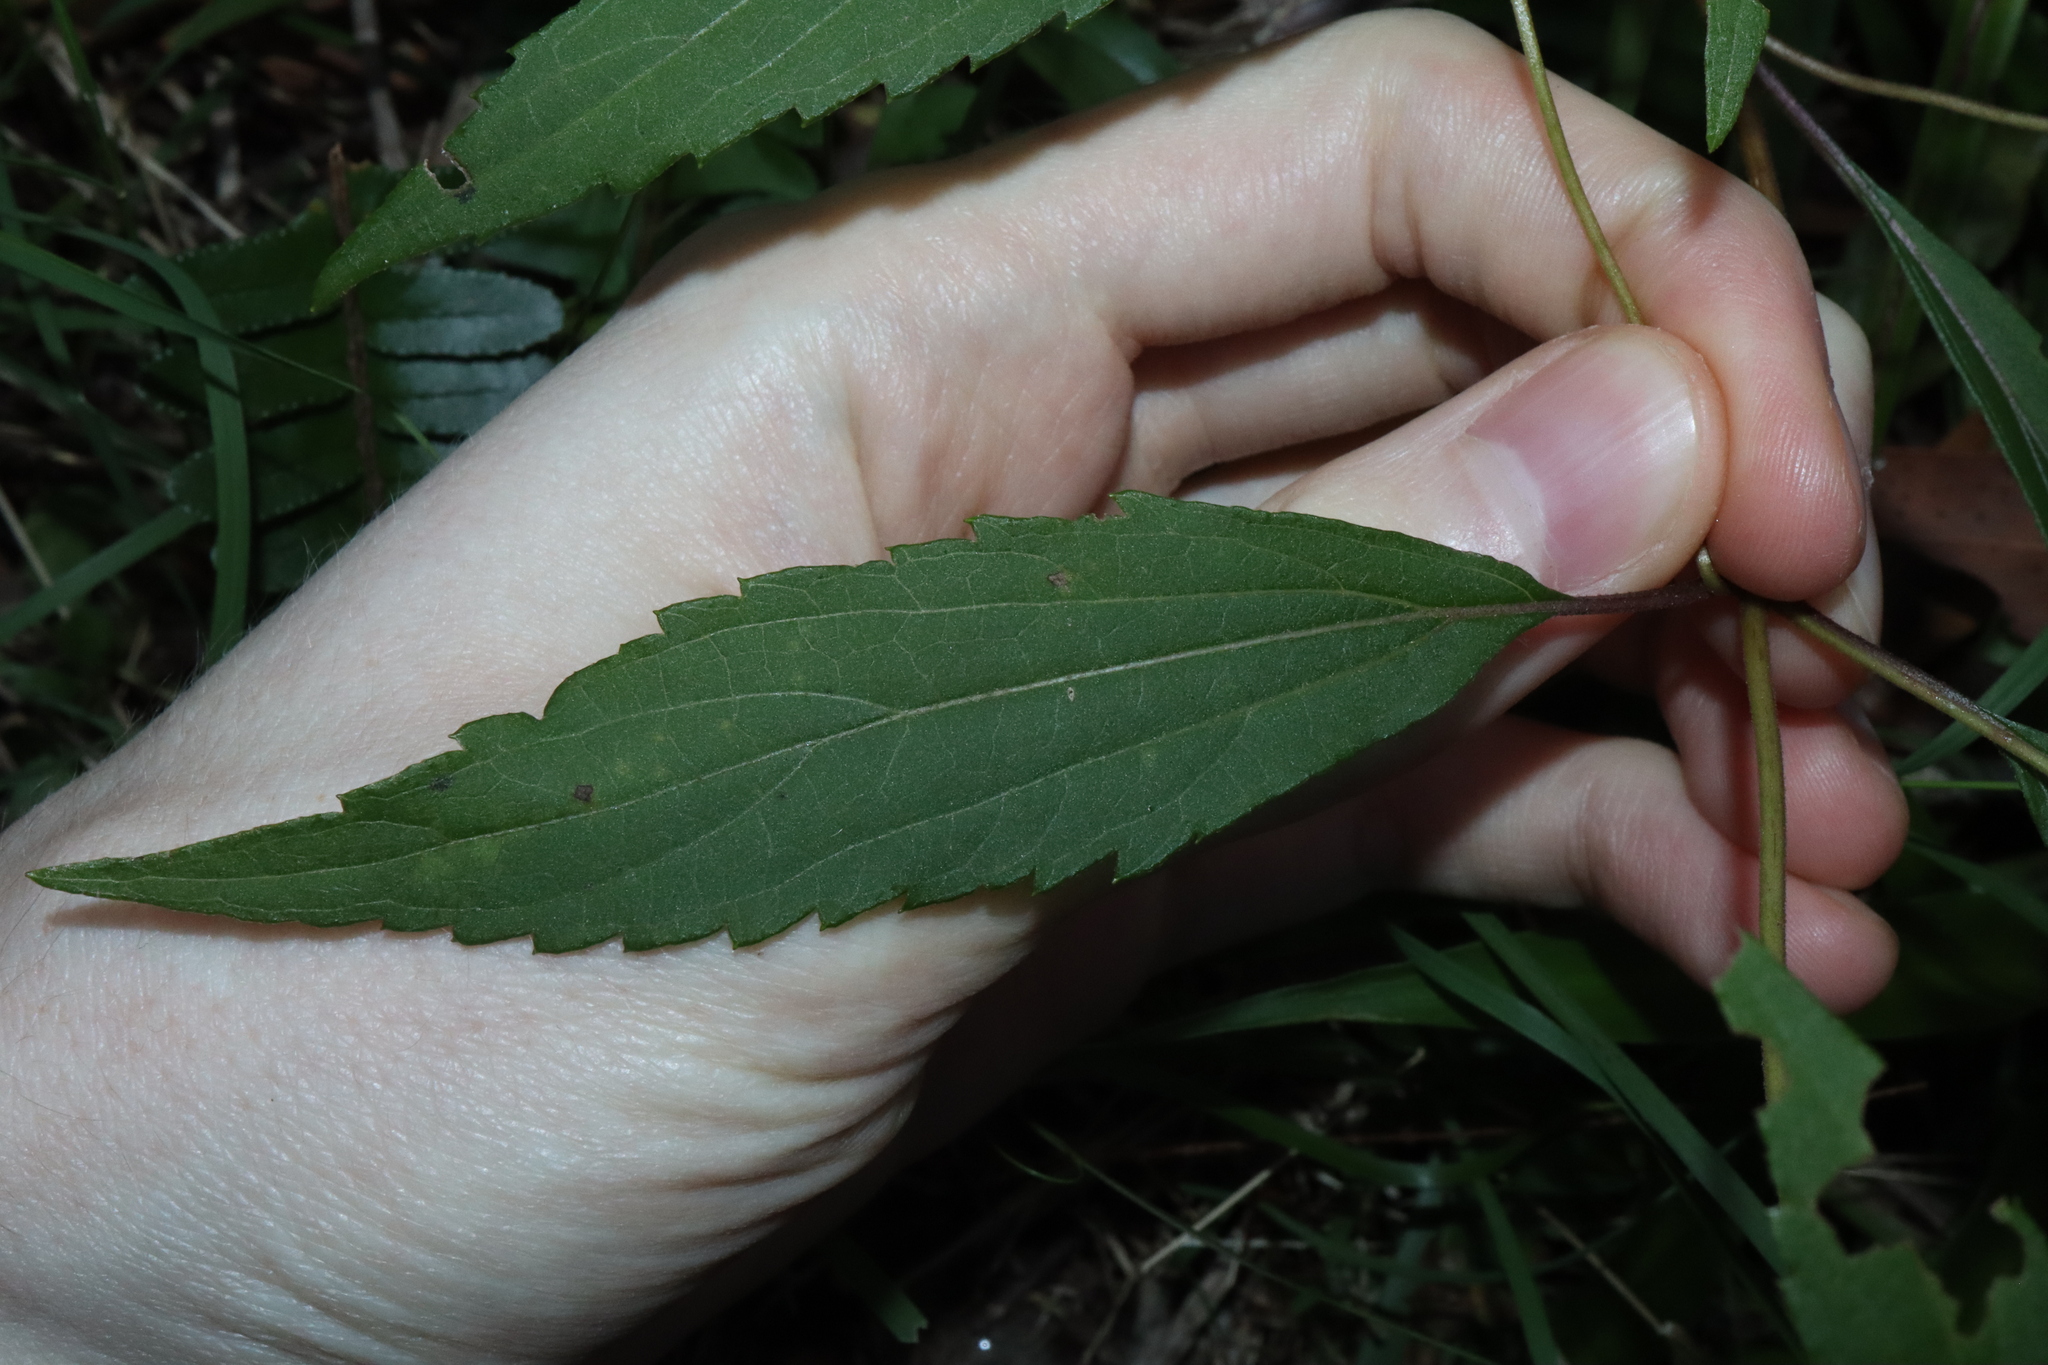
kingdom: Plantae
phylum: Tracheophyta
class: Magnoliopsida
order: Asterales
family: Asteraceae
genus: Ageratina
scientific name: Ageratina riparia
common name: Creeping croftonweed
